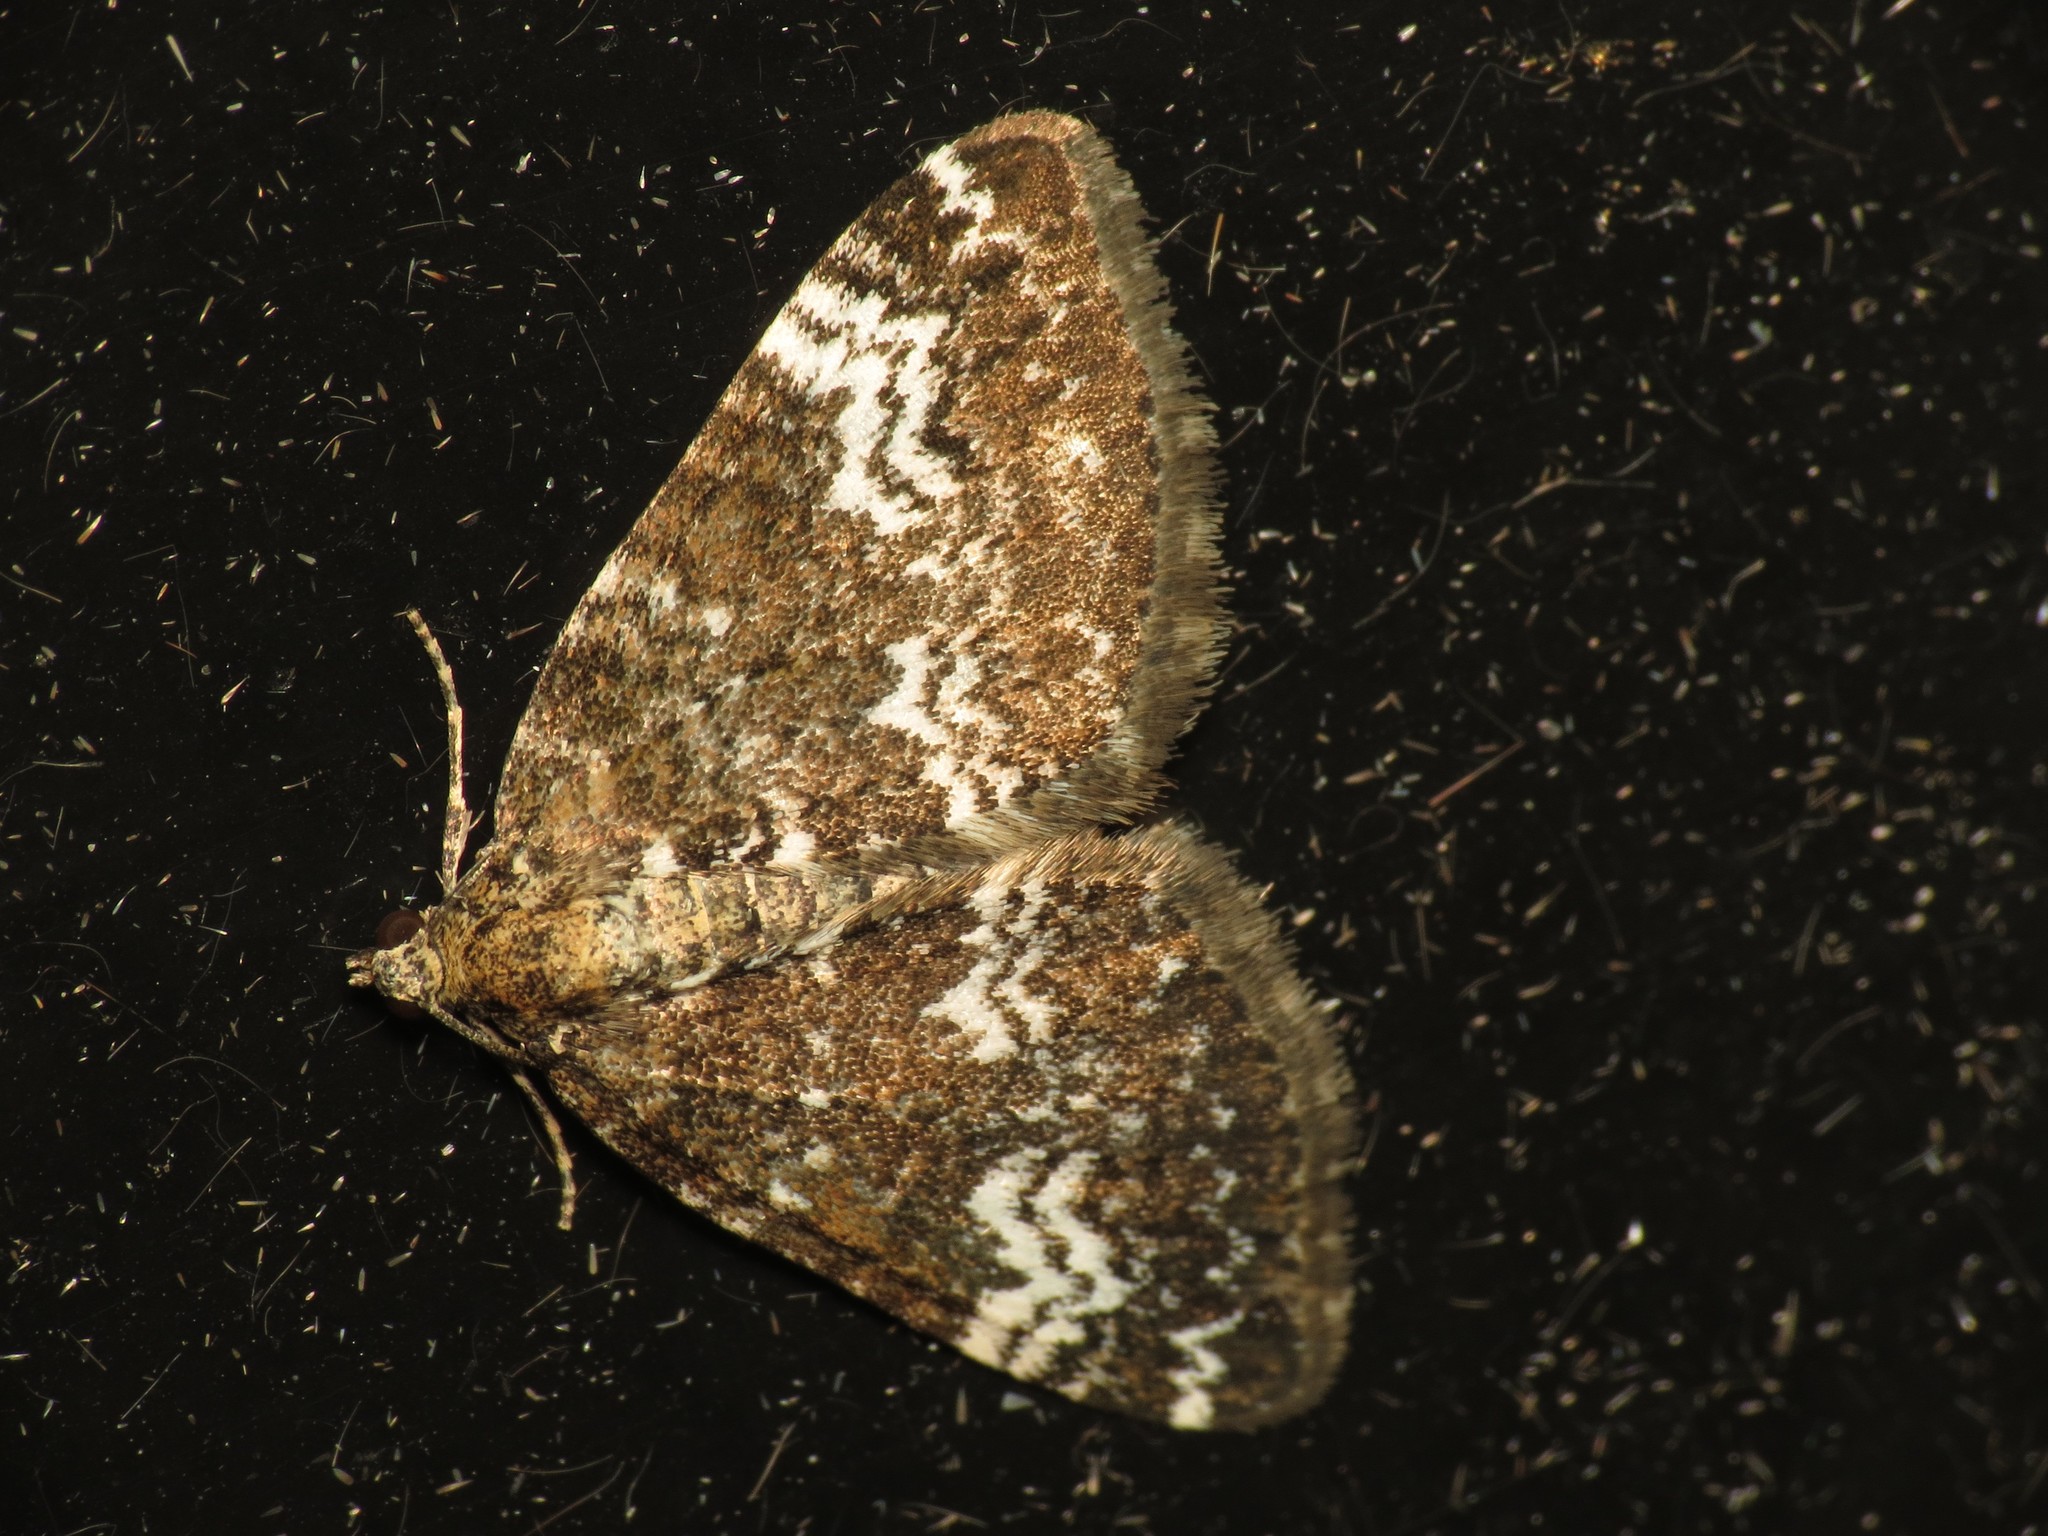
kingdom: Animalia
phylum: Arthropoda
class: Insecta
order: Lepidoptera
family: Geometridae
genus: Perizoma
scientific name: Perizoma alchemillata
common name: Small rivulet
